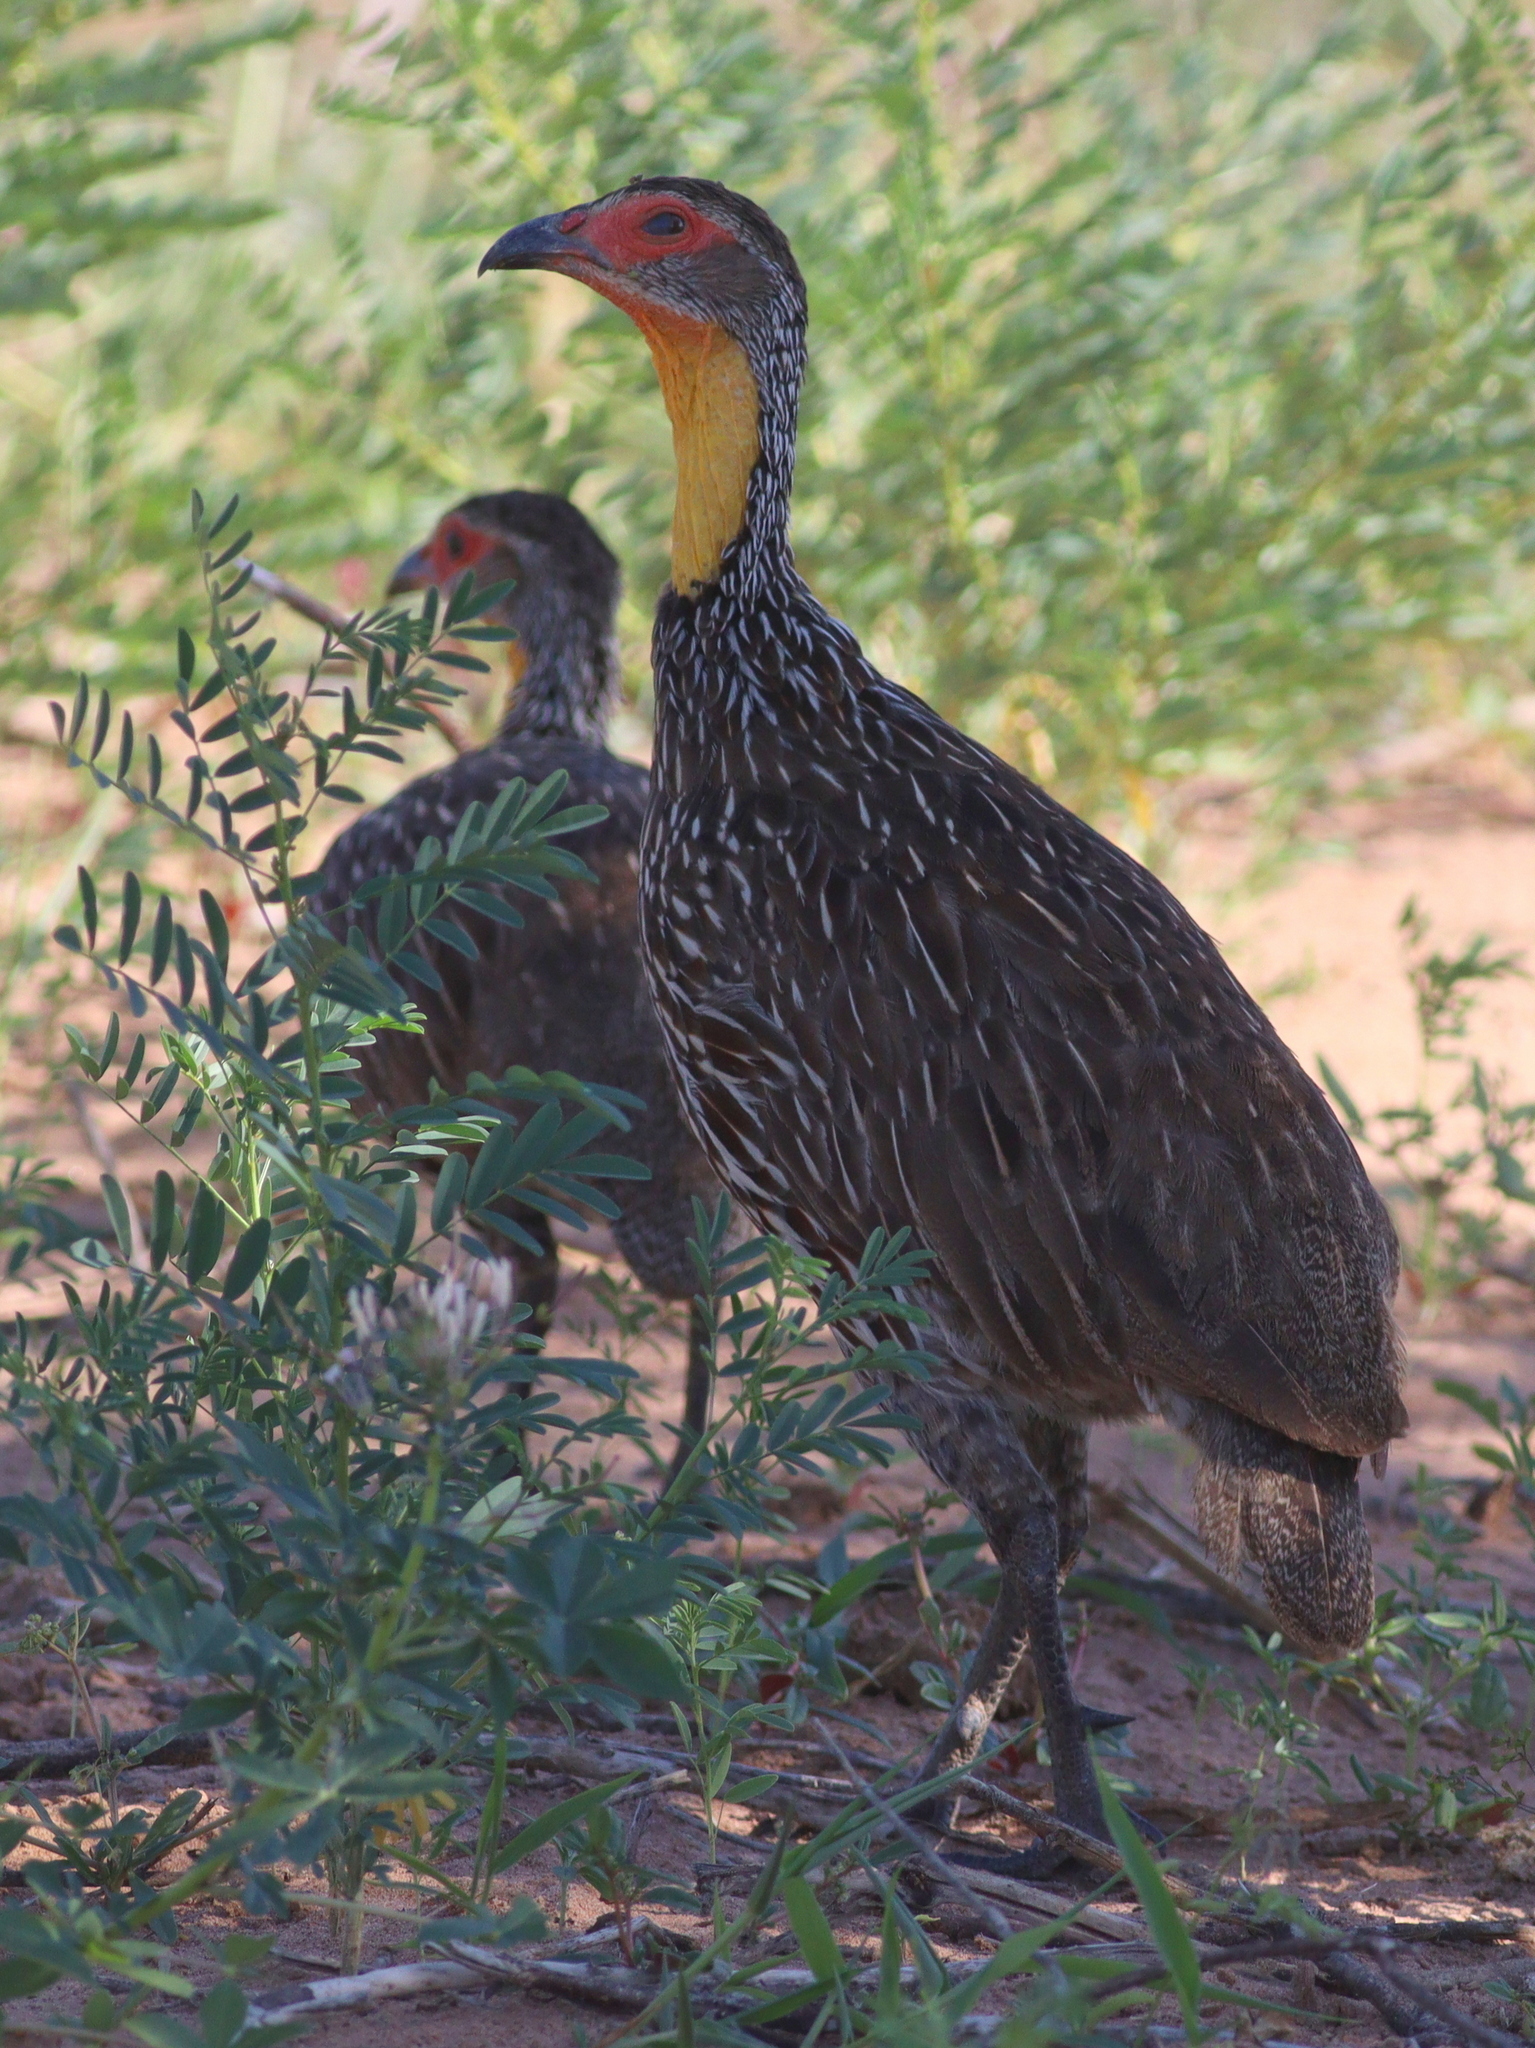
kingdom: Animalia
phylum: Chordata
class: Aves
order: Galliformes
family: Phasianidae
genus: Pternistis
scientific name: Pternistis leucoscepus
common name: Yellow-necked spurfowl
